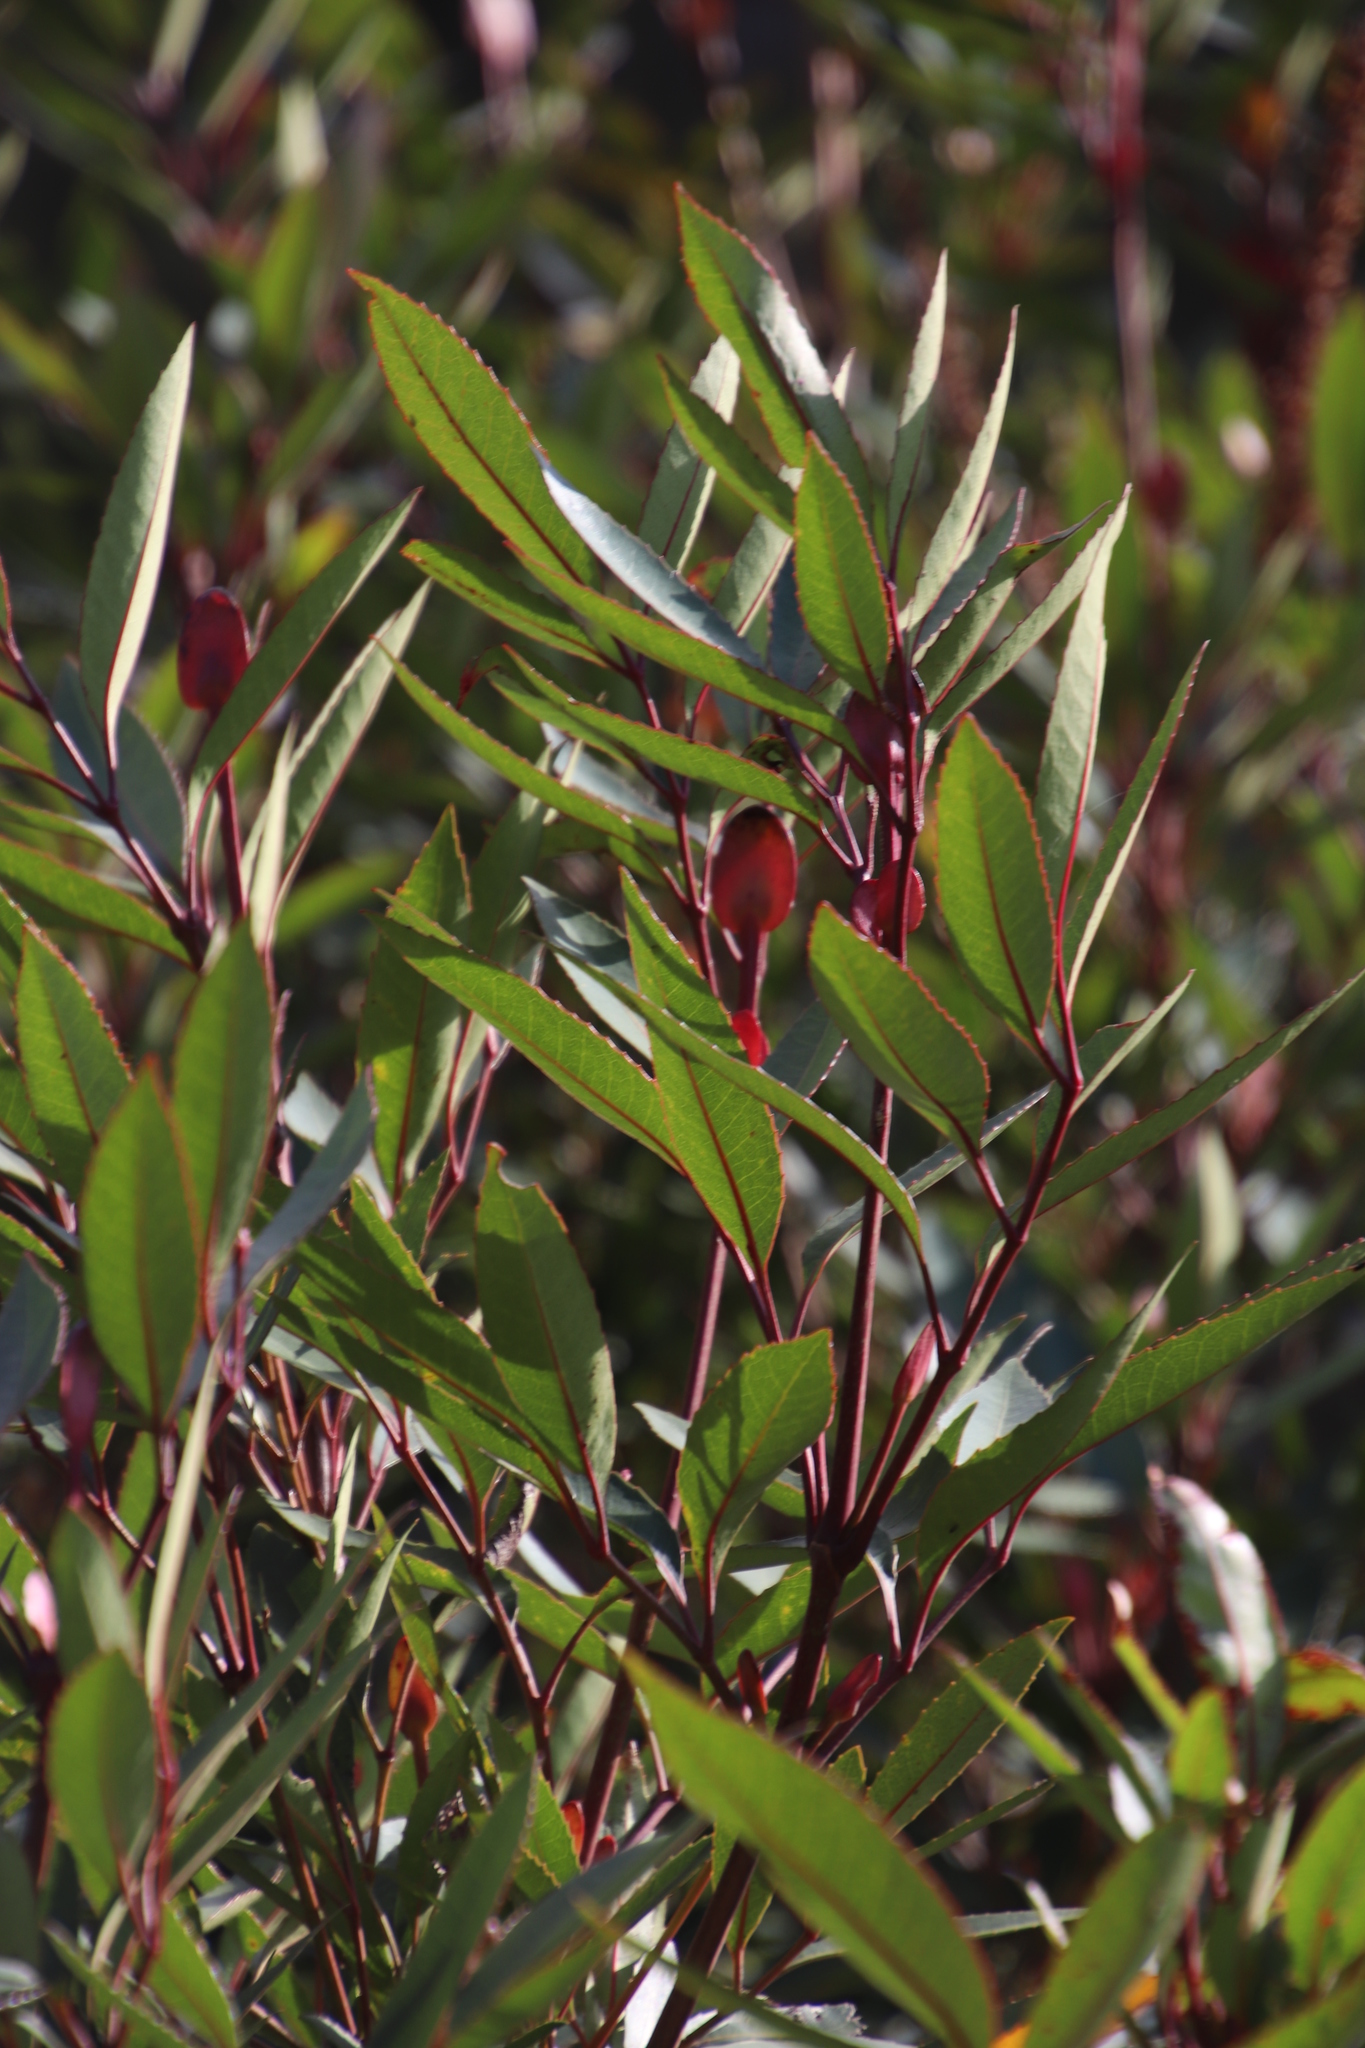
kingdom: Plantae
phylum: Tracheophyta
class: Magnoliopsida
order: Oxalidales
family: Cunoniaceae
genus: Cunonia
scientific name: Cunonia capensis
